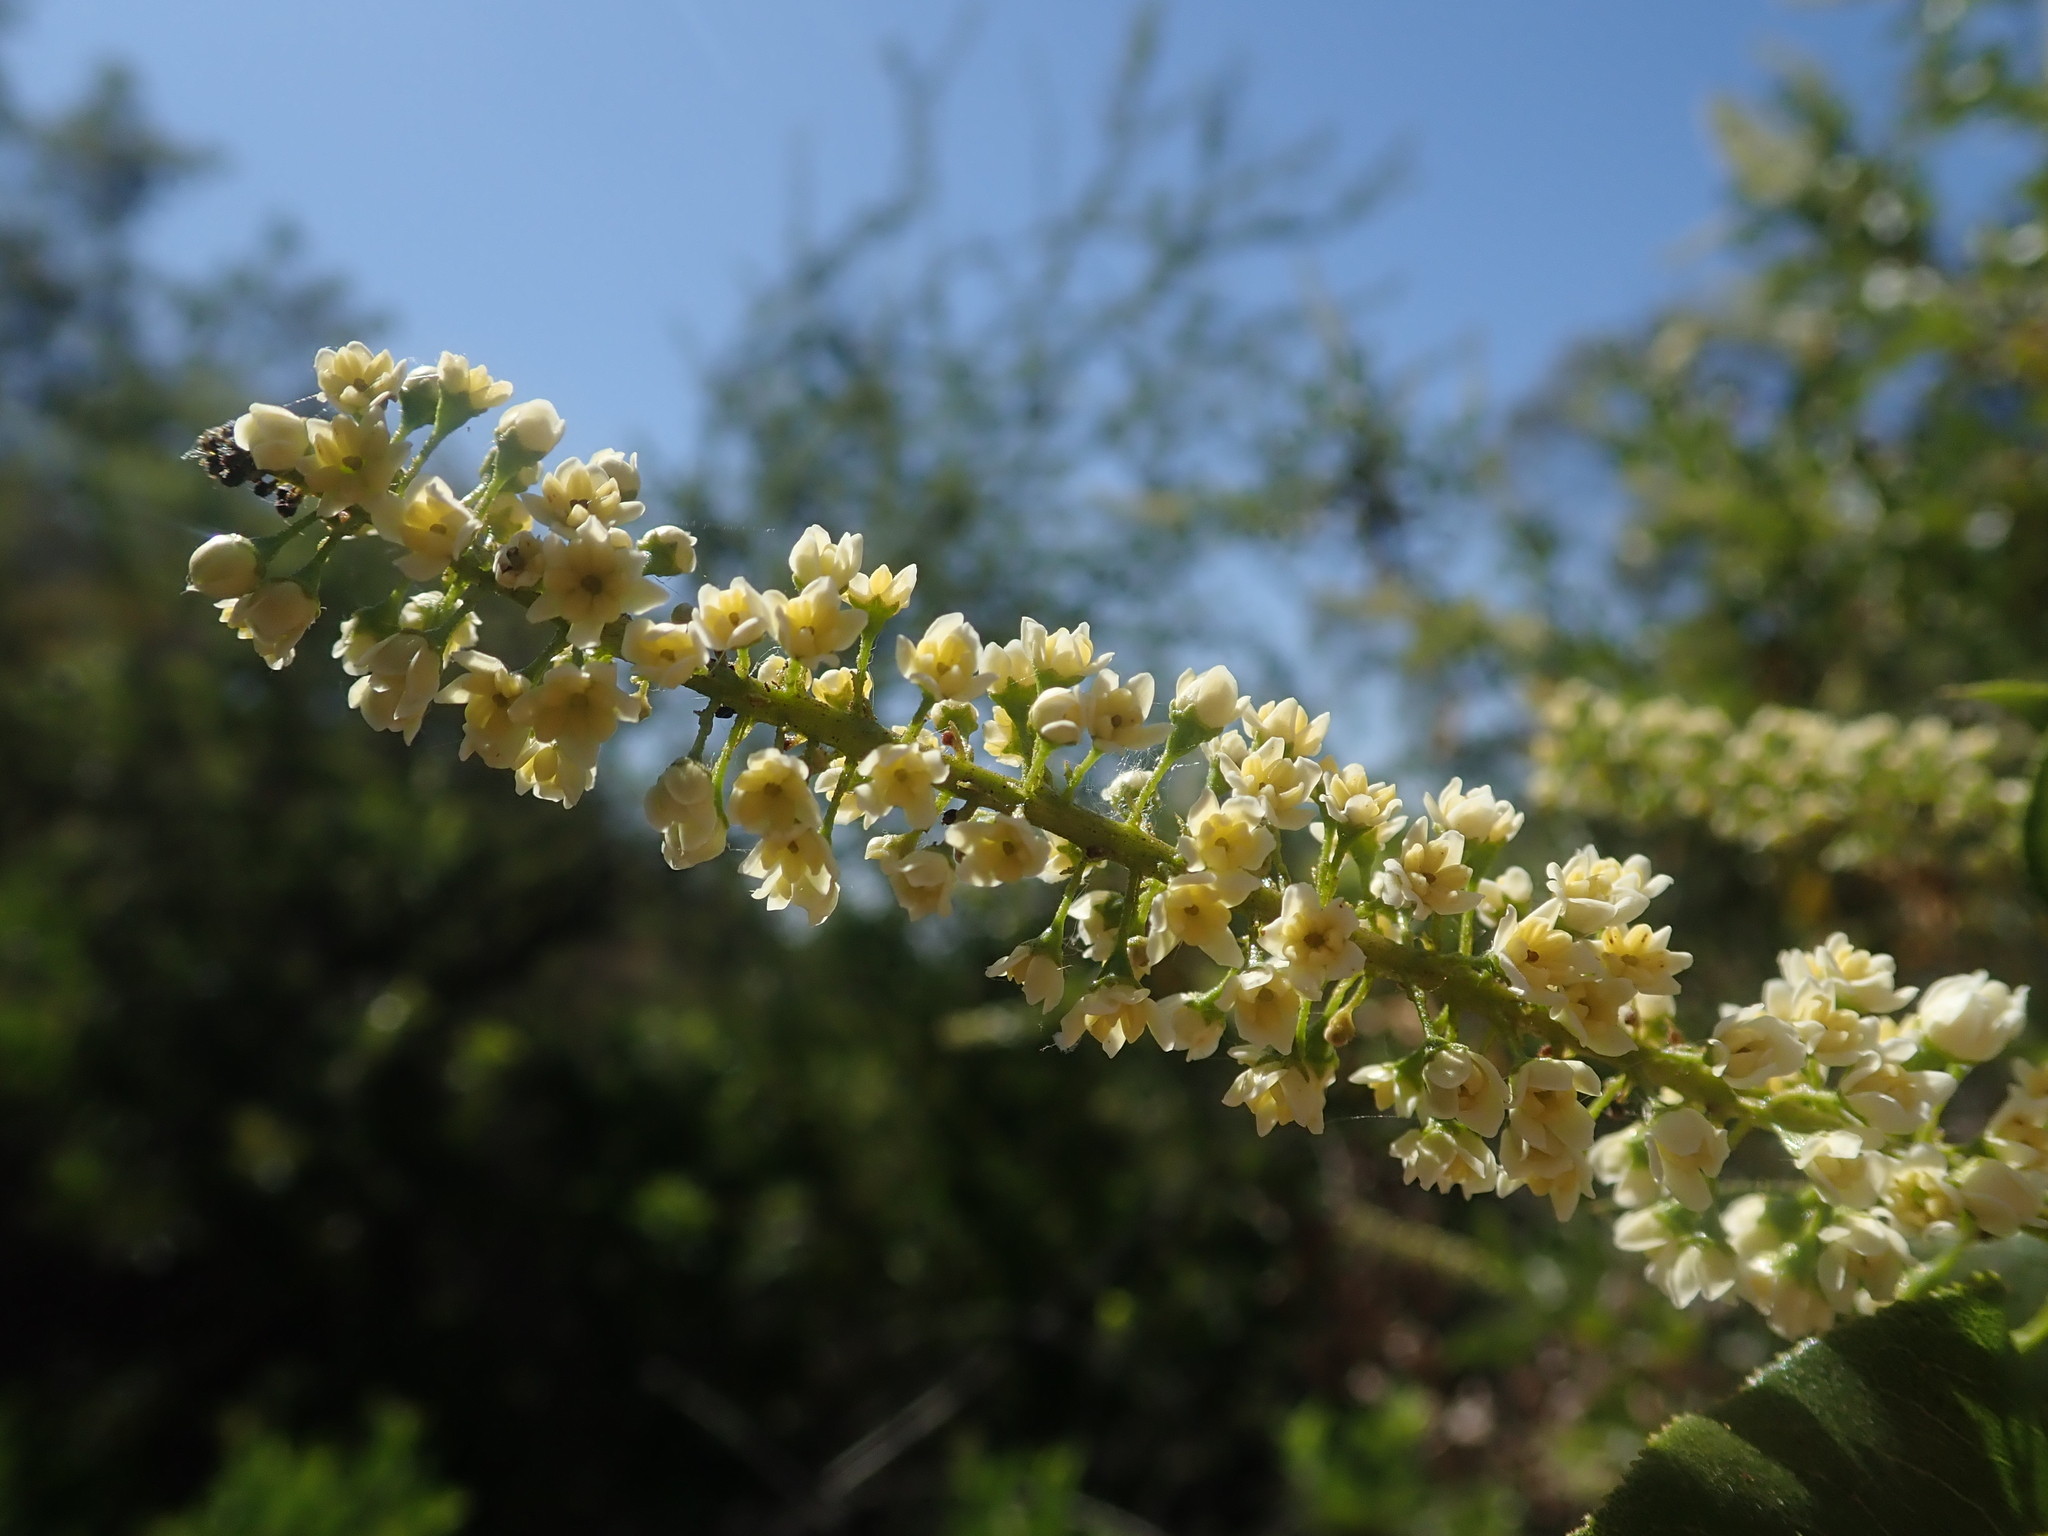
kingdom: Plantae
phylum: Tracheophyta
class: Magnoliopsida
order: Escalloniales
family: Escalloniaceae
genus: Escallonia
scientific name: Escallonia pulverulenta
